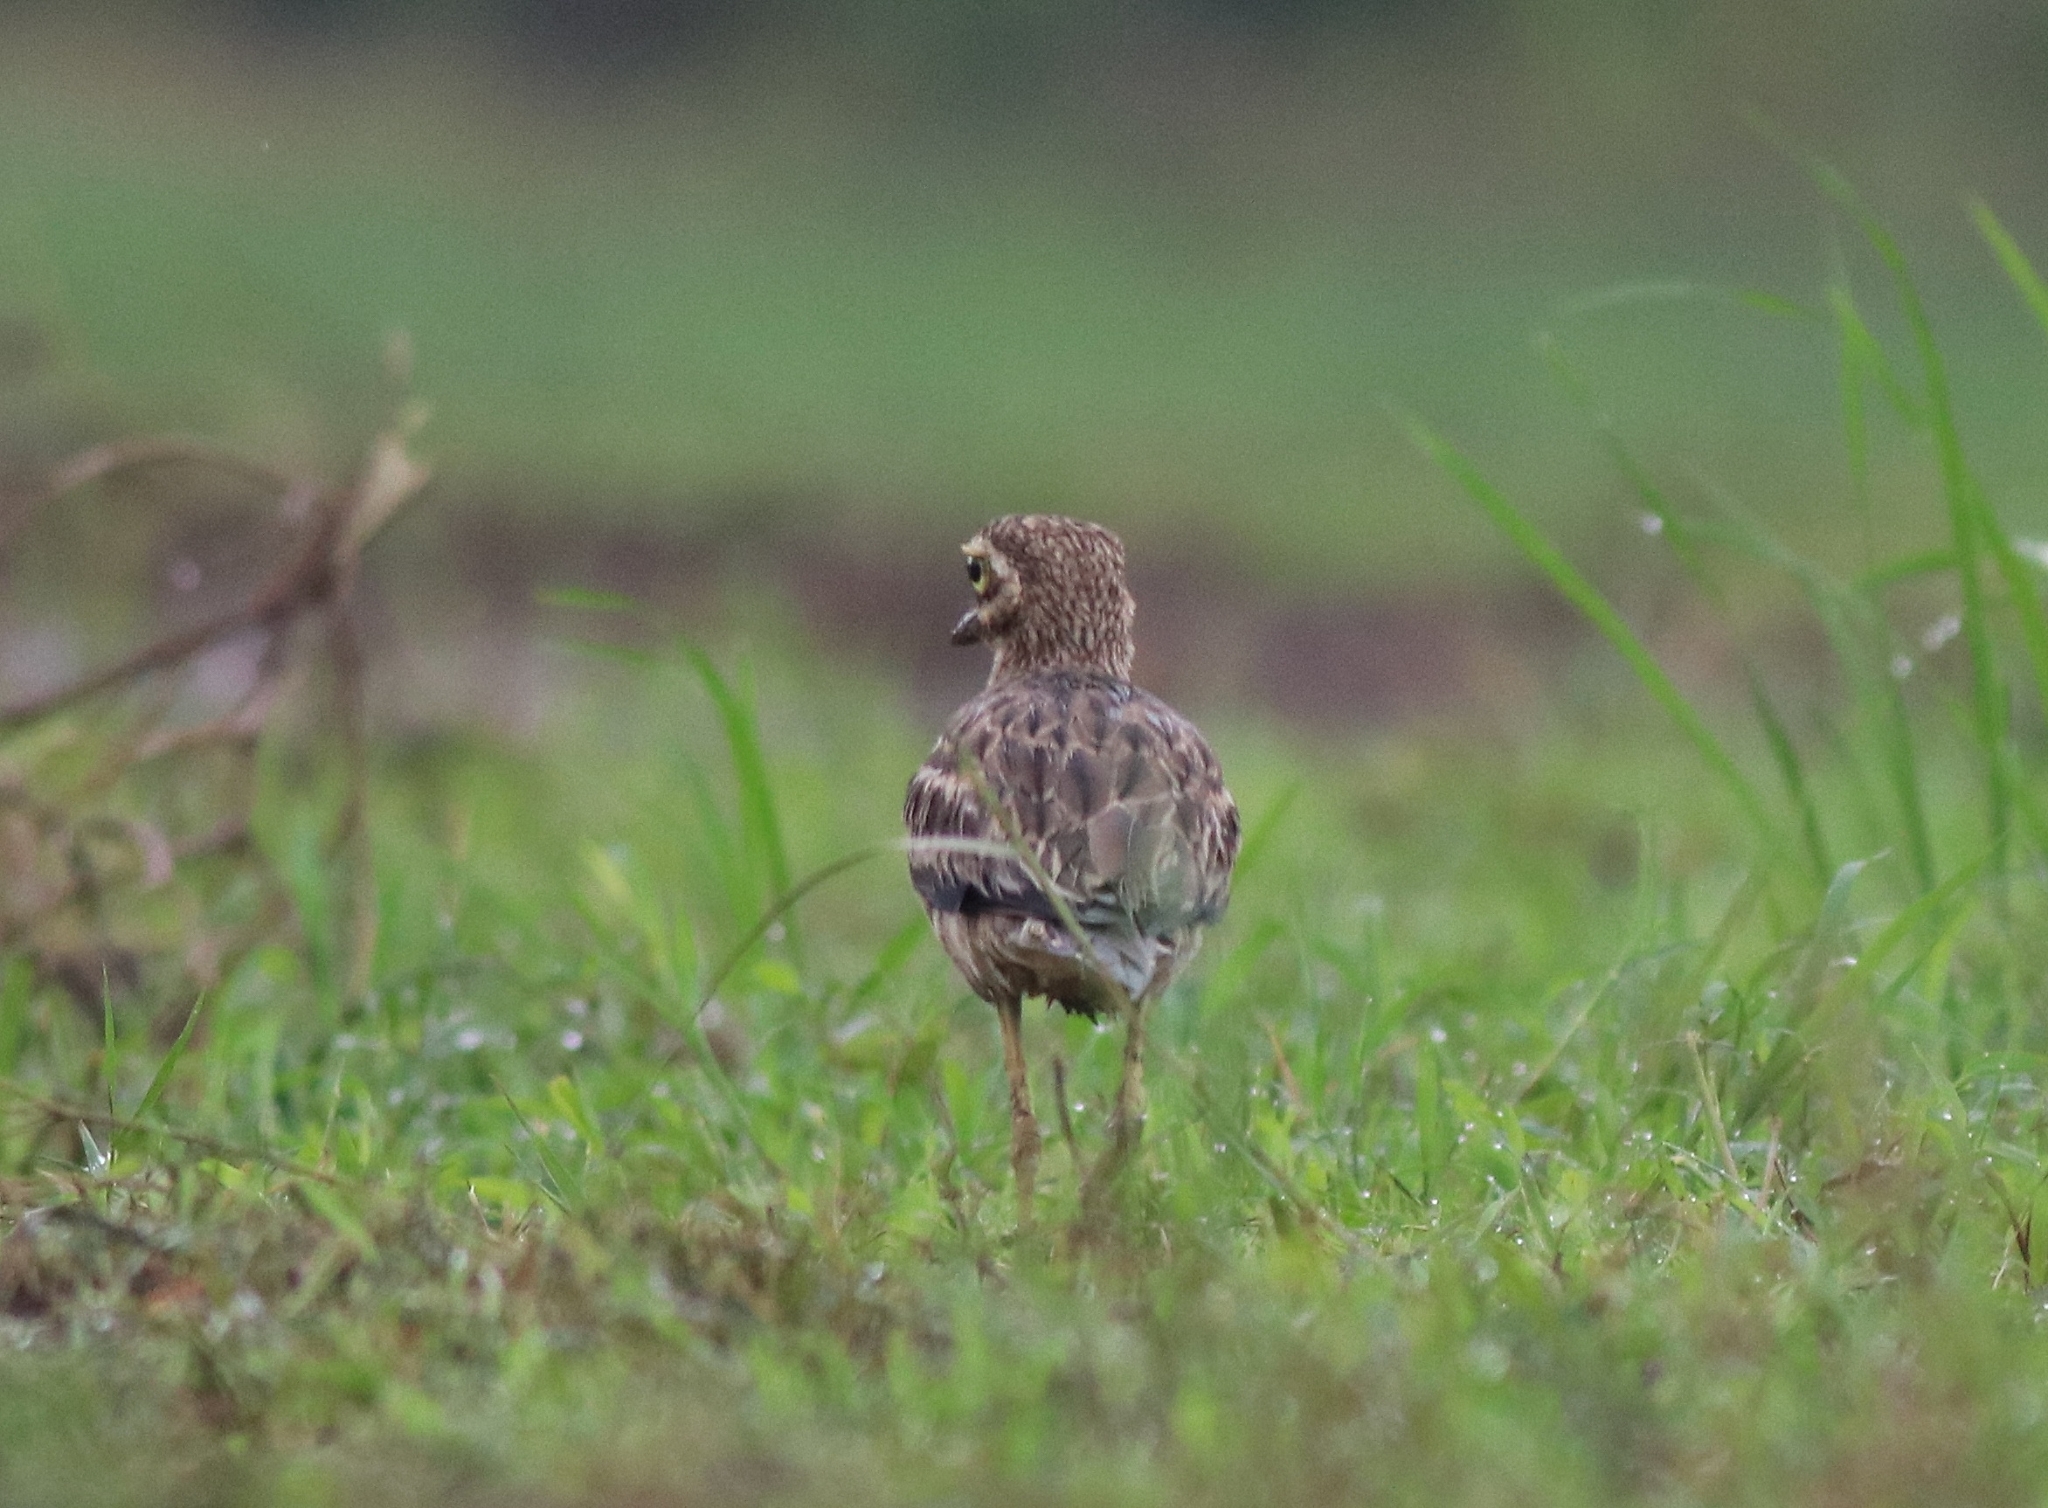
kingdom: Animalia
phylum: Chordata
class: Aves
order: Charadriiformes
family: Burhinidae
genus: Burhinus
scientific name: Burhinus indicus
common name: Indian thick-knee
